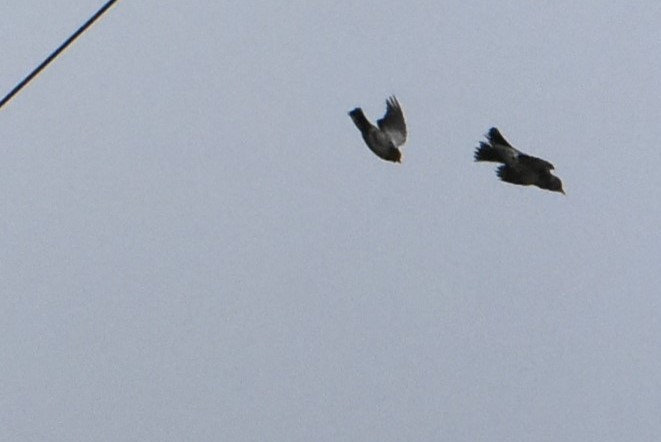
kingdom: Animalia
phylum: Chordata
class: Aves
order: Passeriformes
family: Turdidae
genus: Turdus
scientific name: Turdus pilaris
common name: Fieldfare
